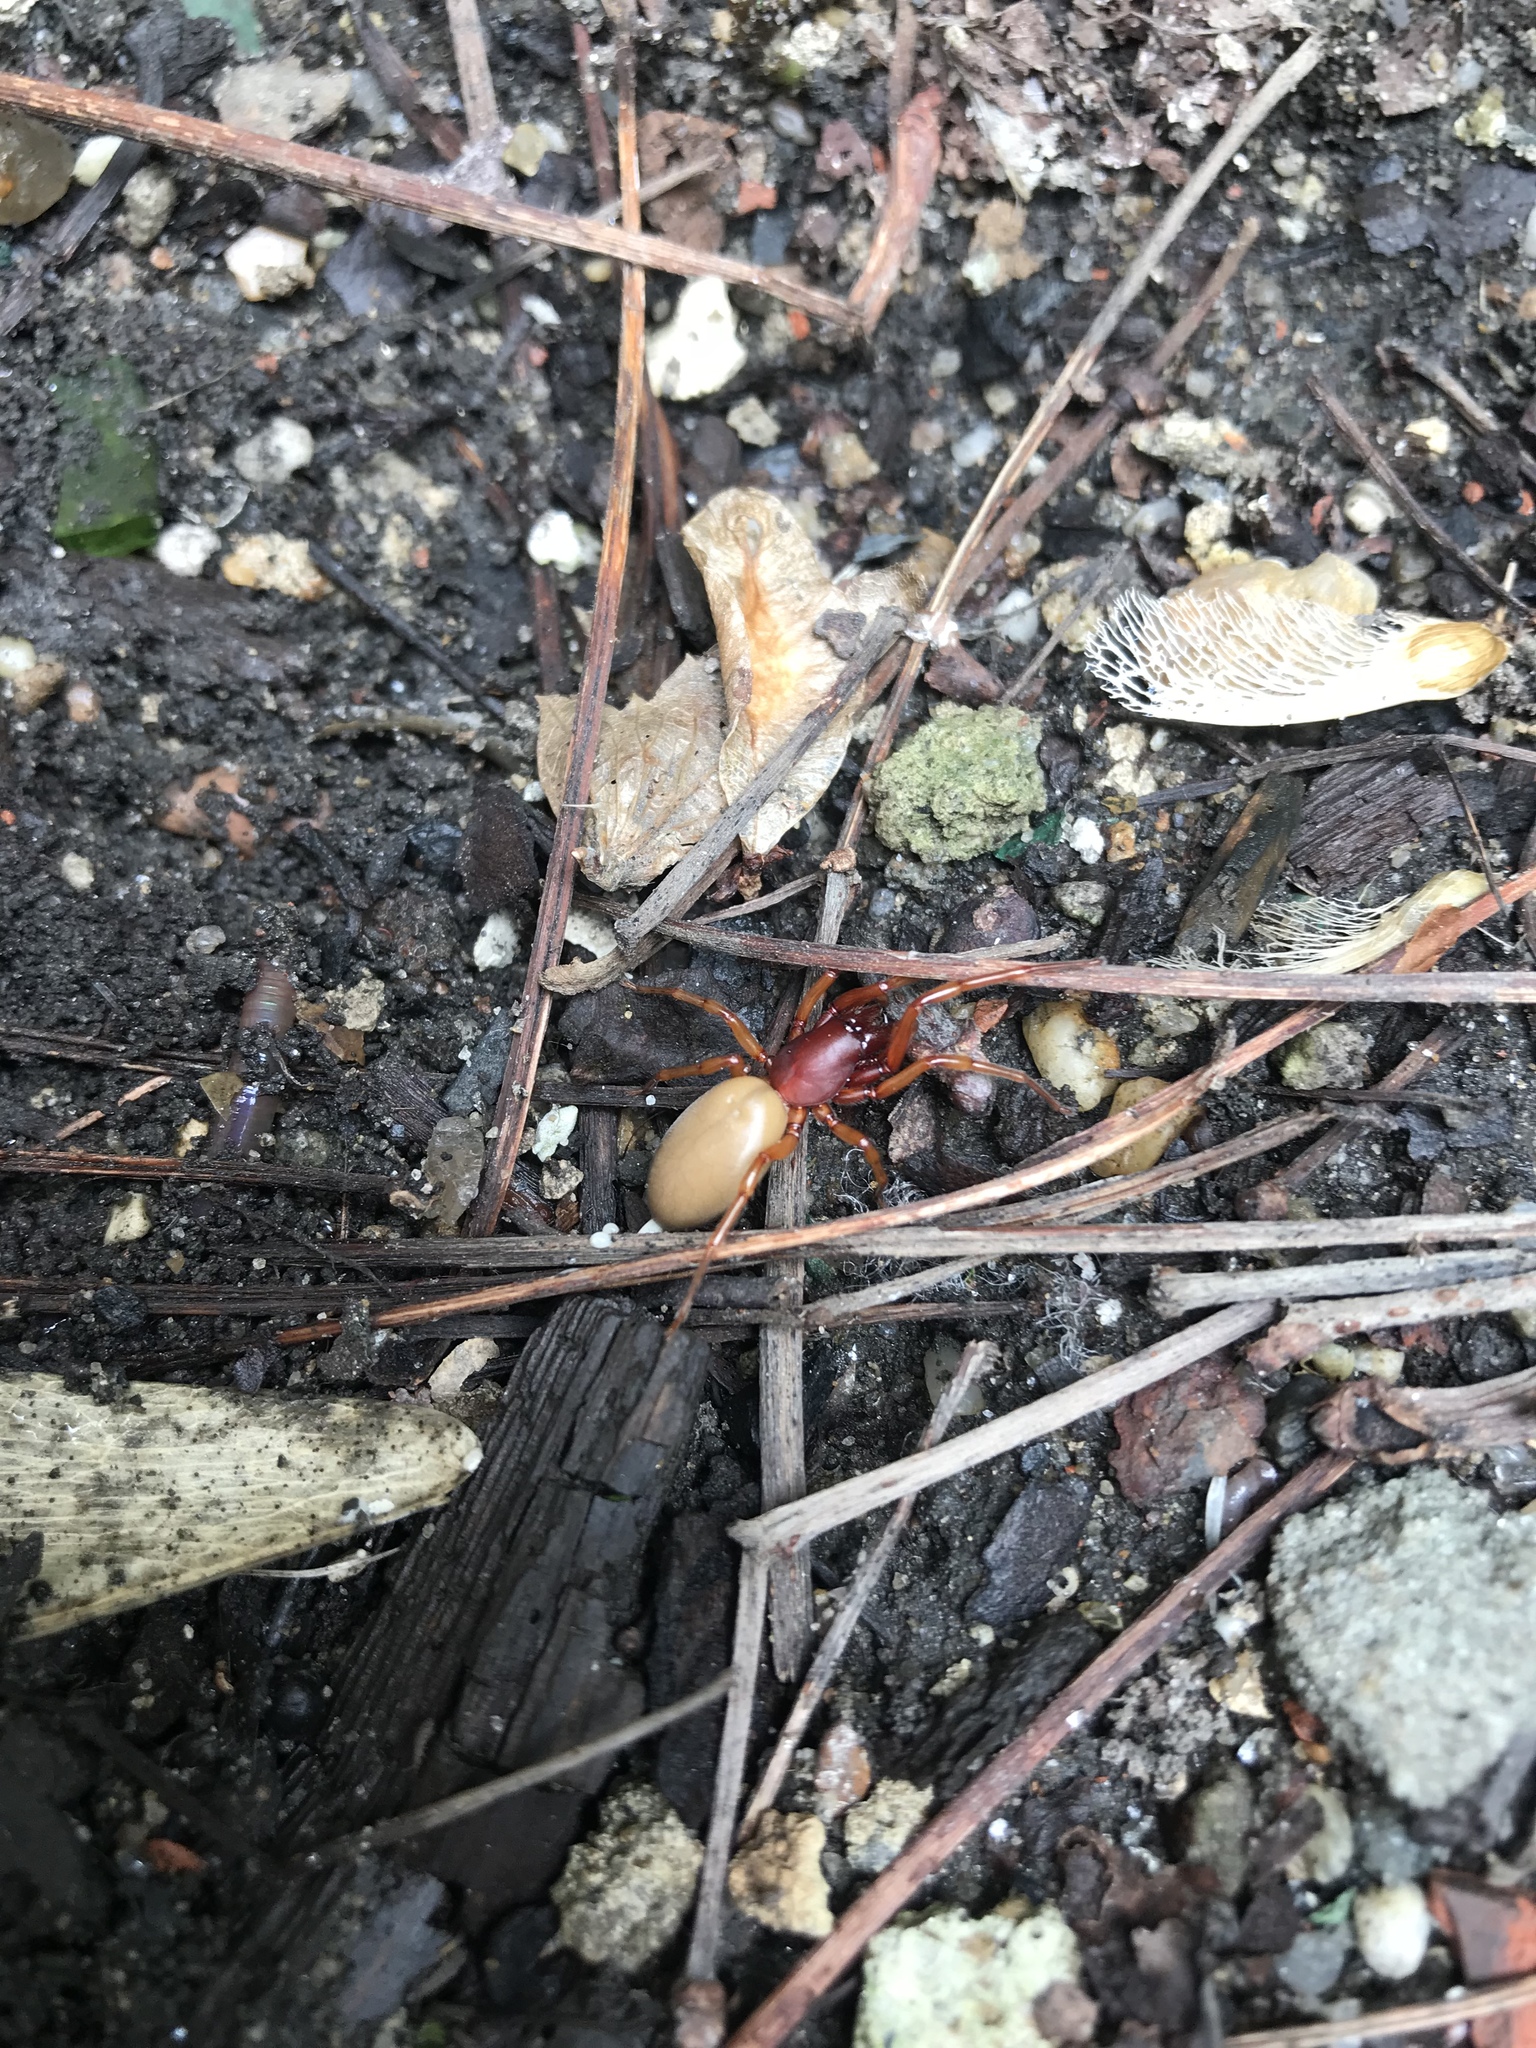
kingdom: Animalia
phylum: Arthropoda
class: Arachnida
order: Araneae
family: Dysderidae
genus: Dysdera
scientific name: Dysdera crocata
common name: Woodlouse spider
